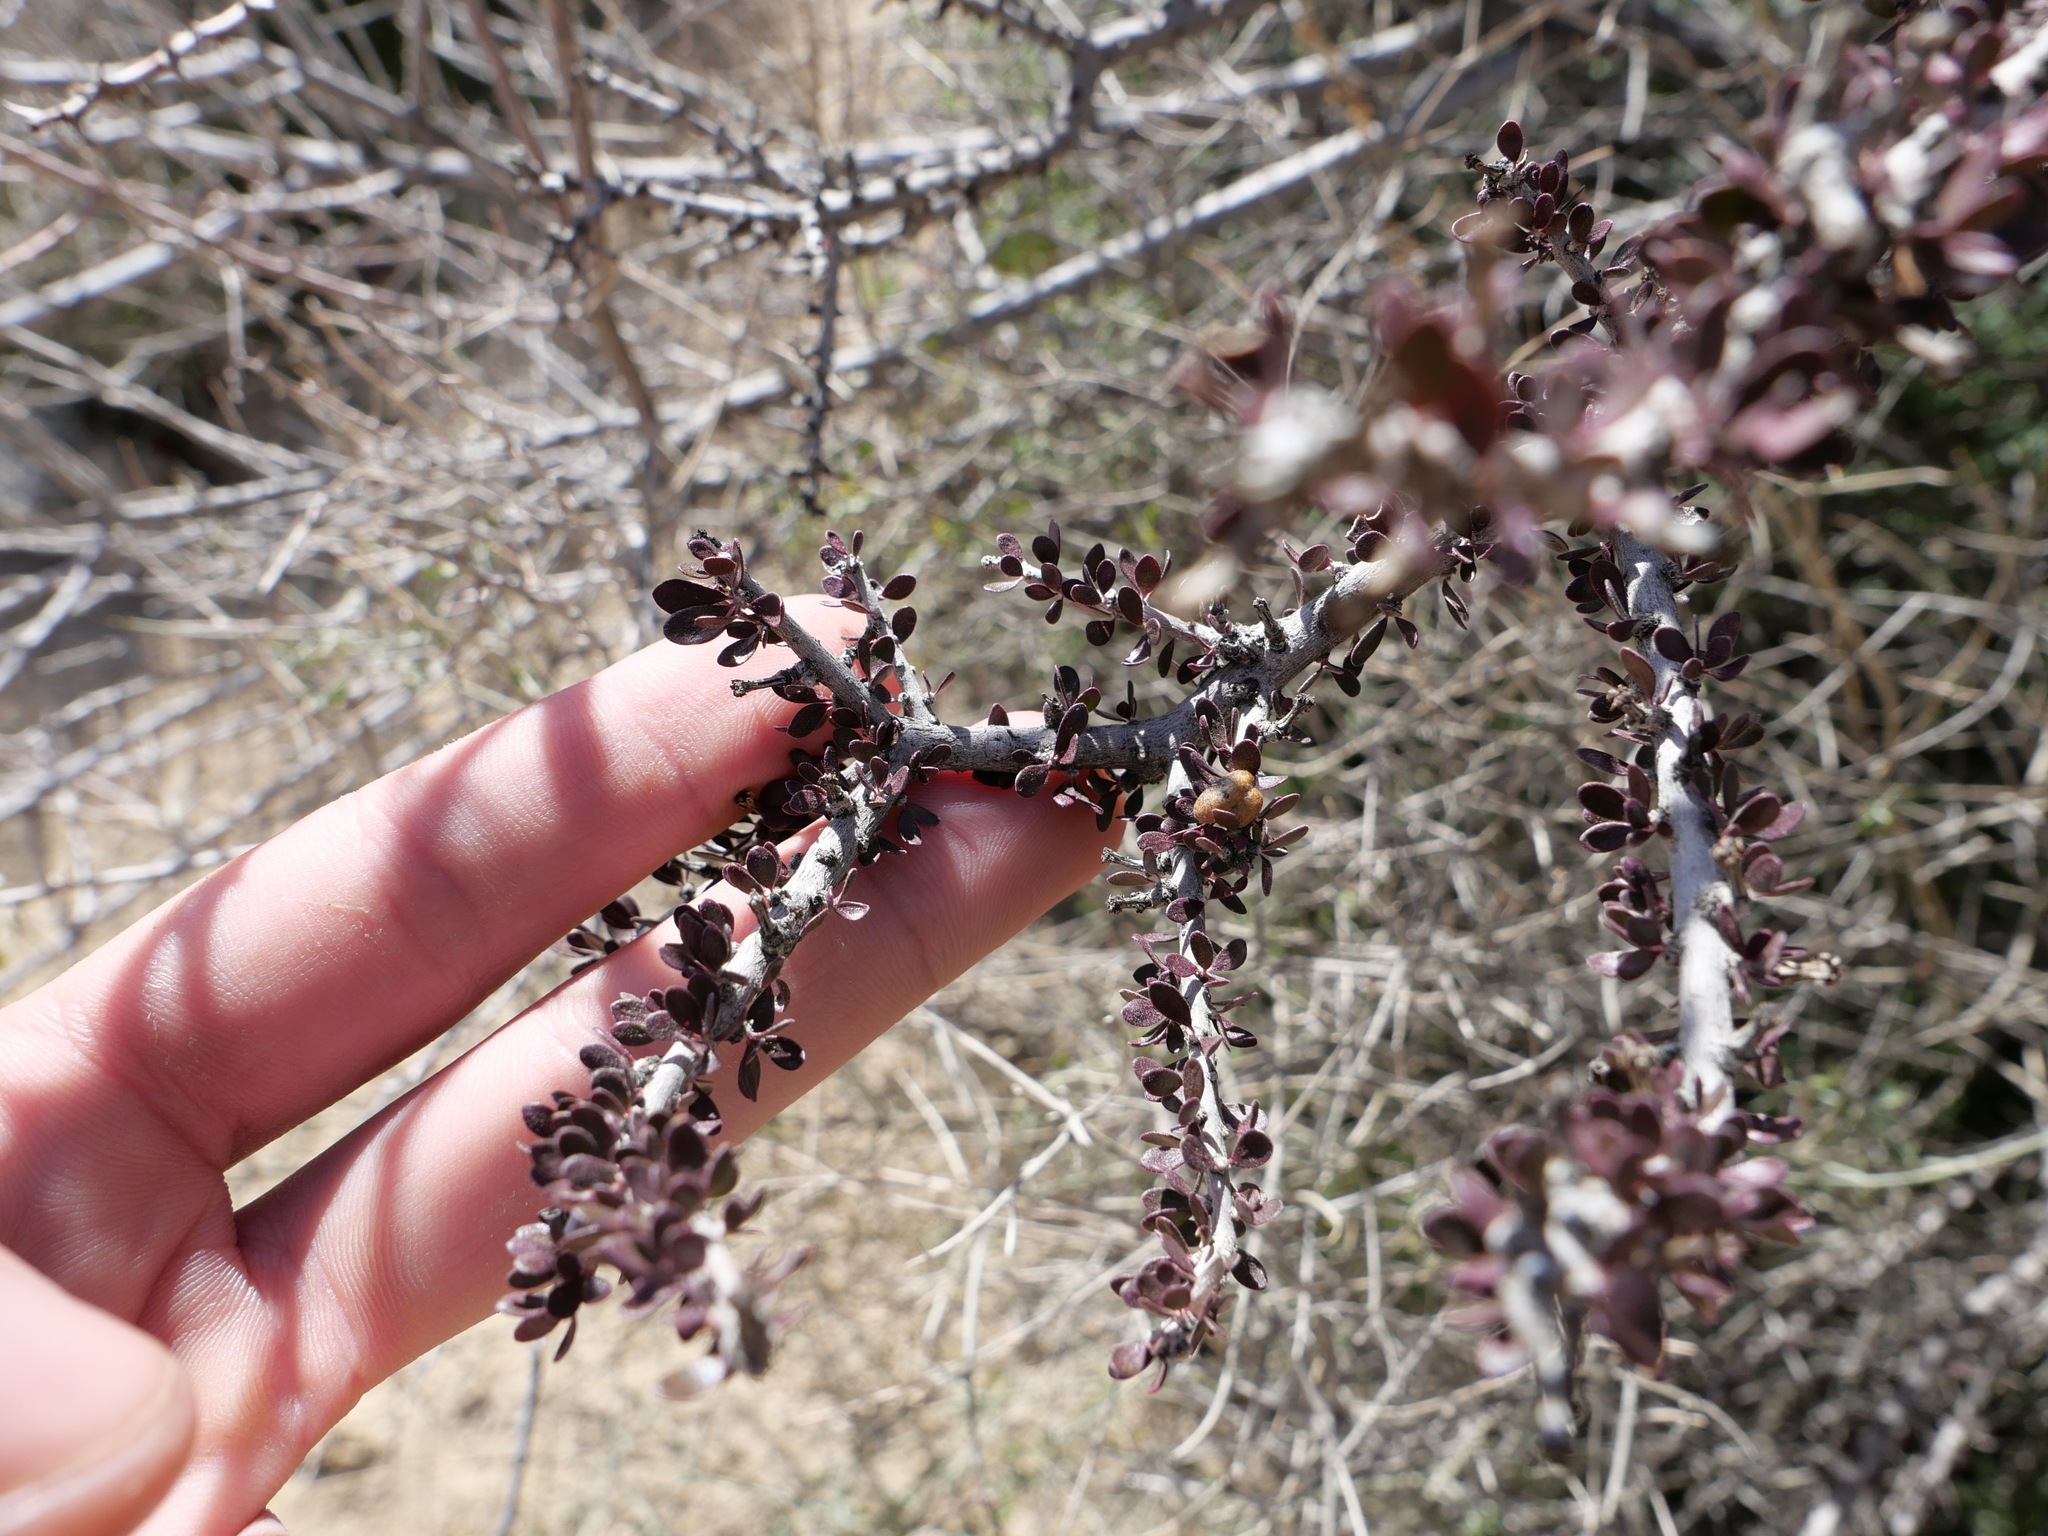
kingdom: Plantae
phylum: Tracheophyta
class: Magnoliopsida
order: Malpighiales
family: Picrodendraceae
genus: Tetracoccus
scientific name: Tetracoccus hallii
